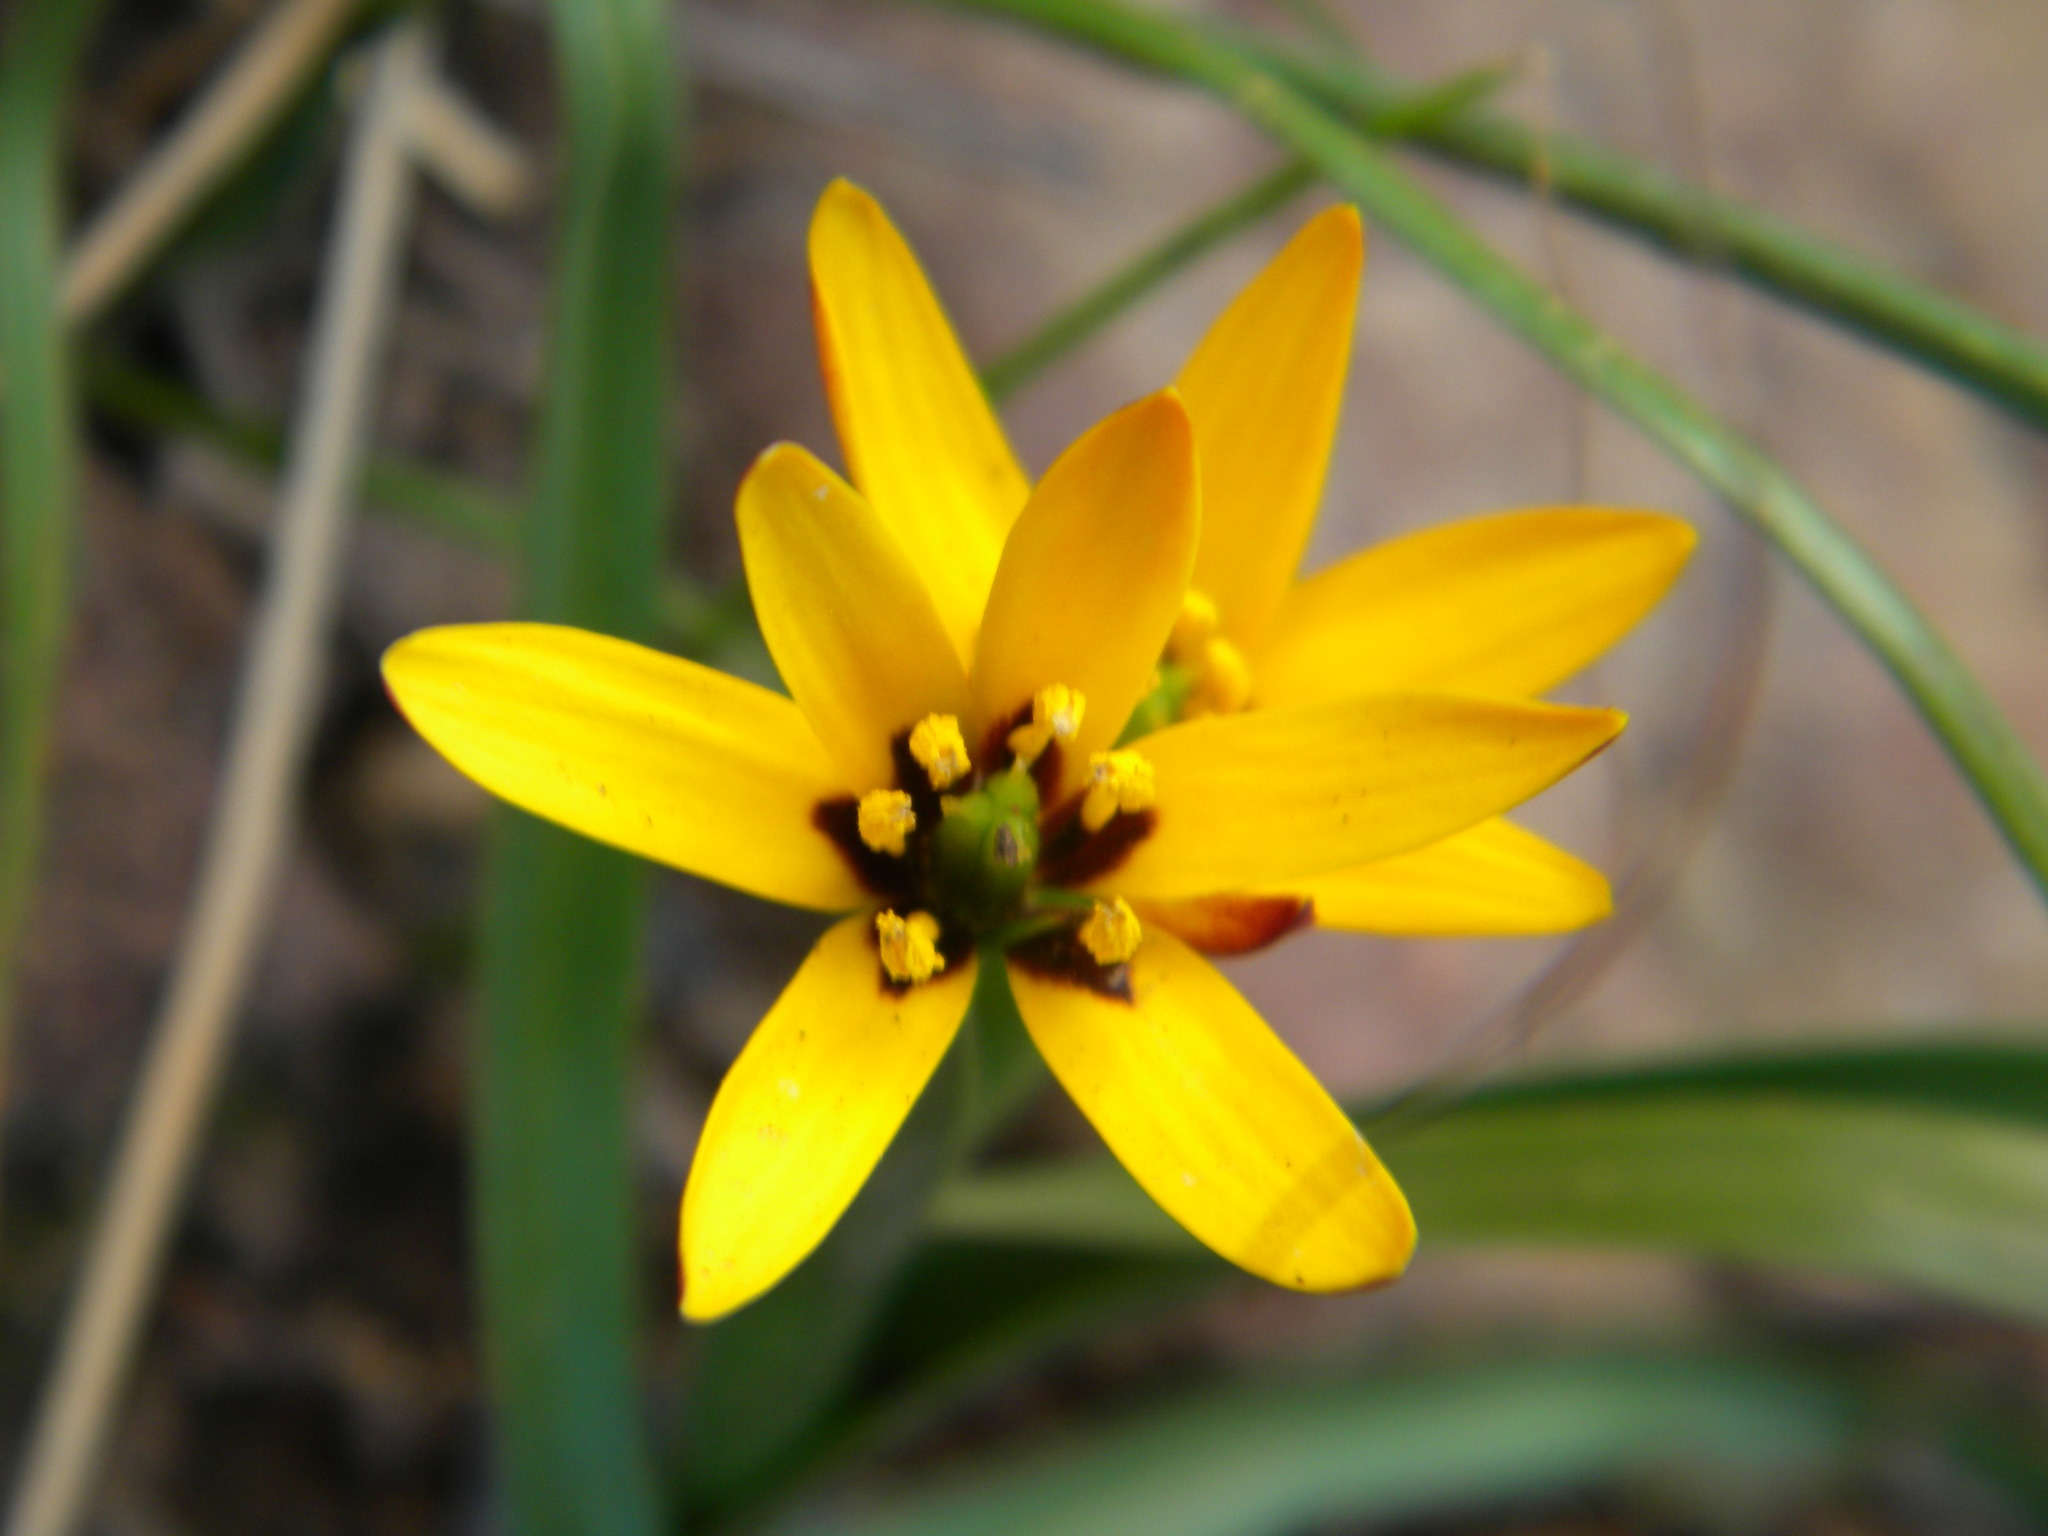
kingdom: Plantae
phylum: Tracheophyta
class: Liliopsida
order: Liliales
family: Colchicaceae
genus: Baeometra
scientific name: Baeometra uniflora
